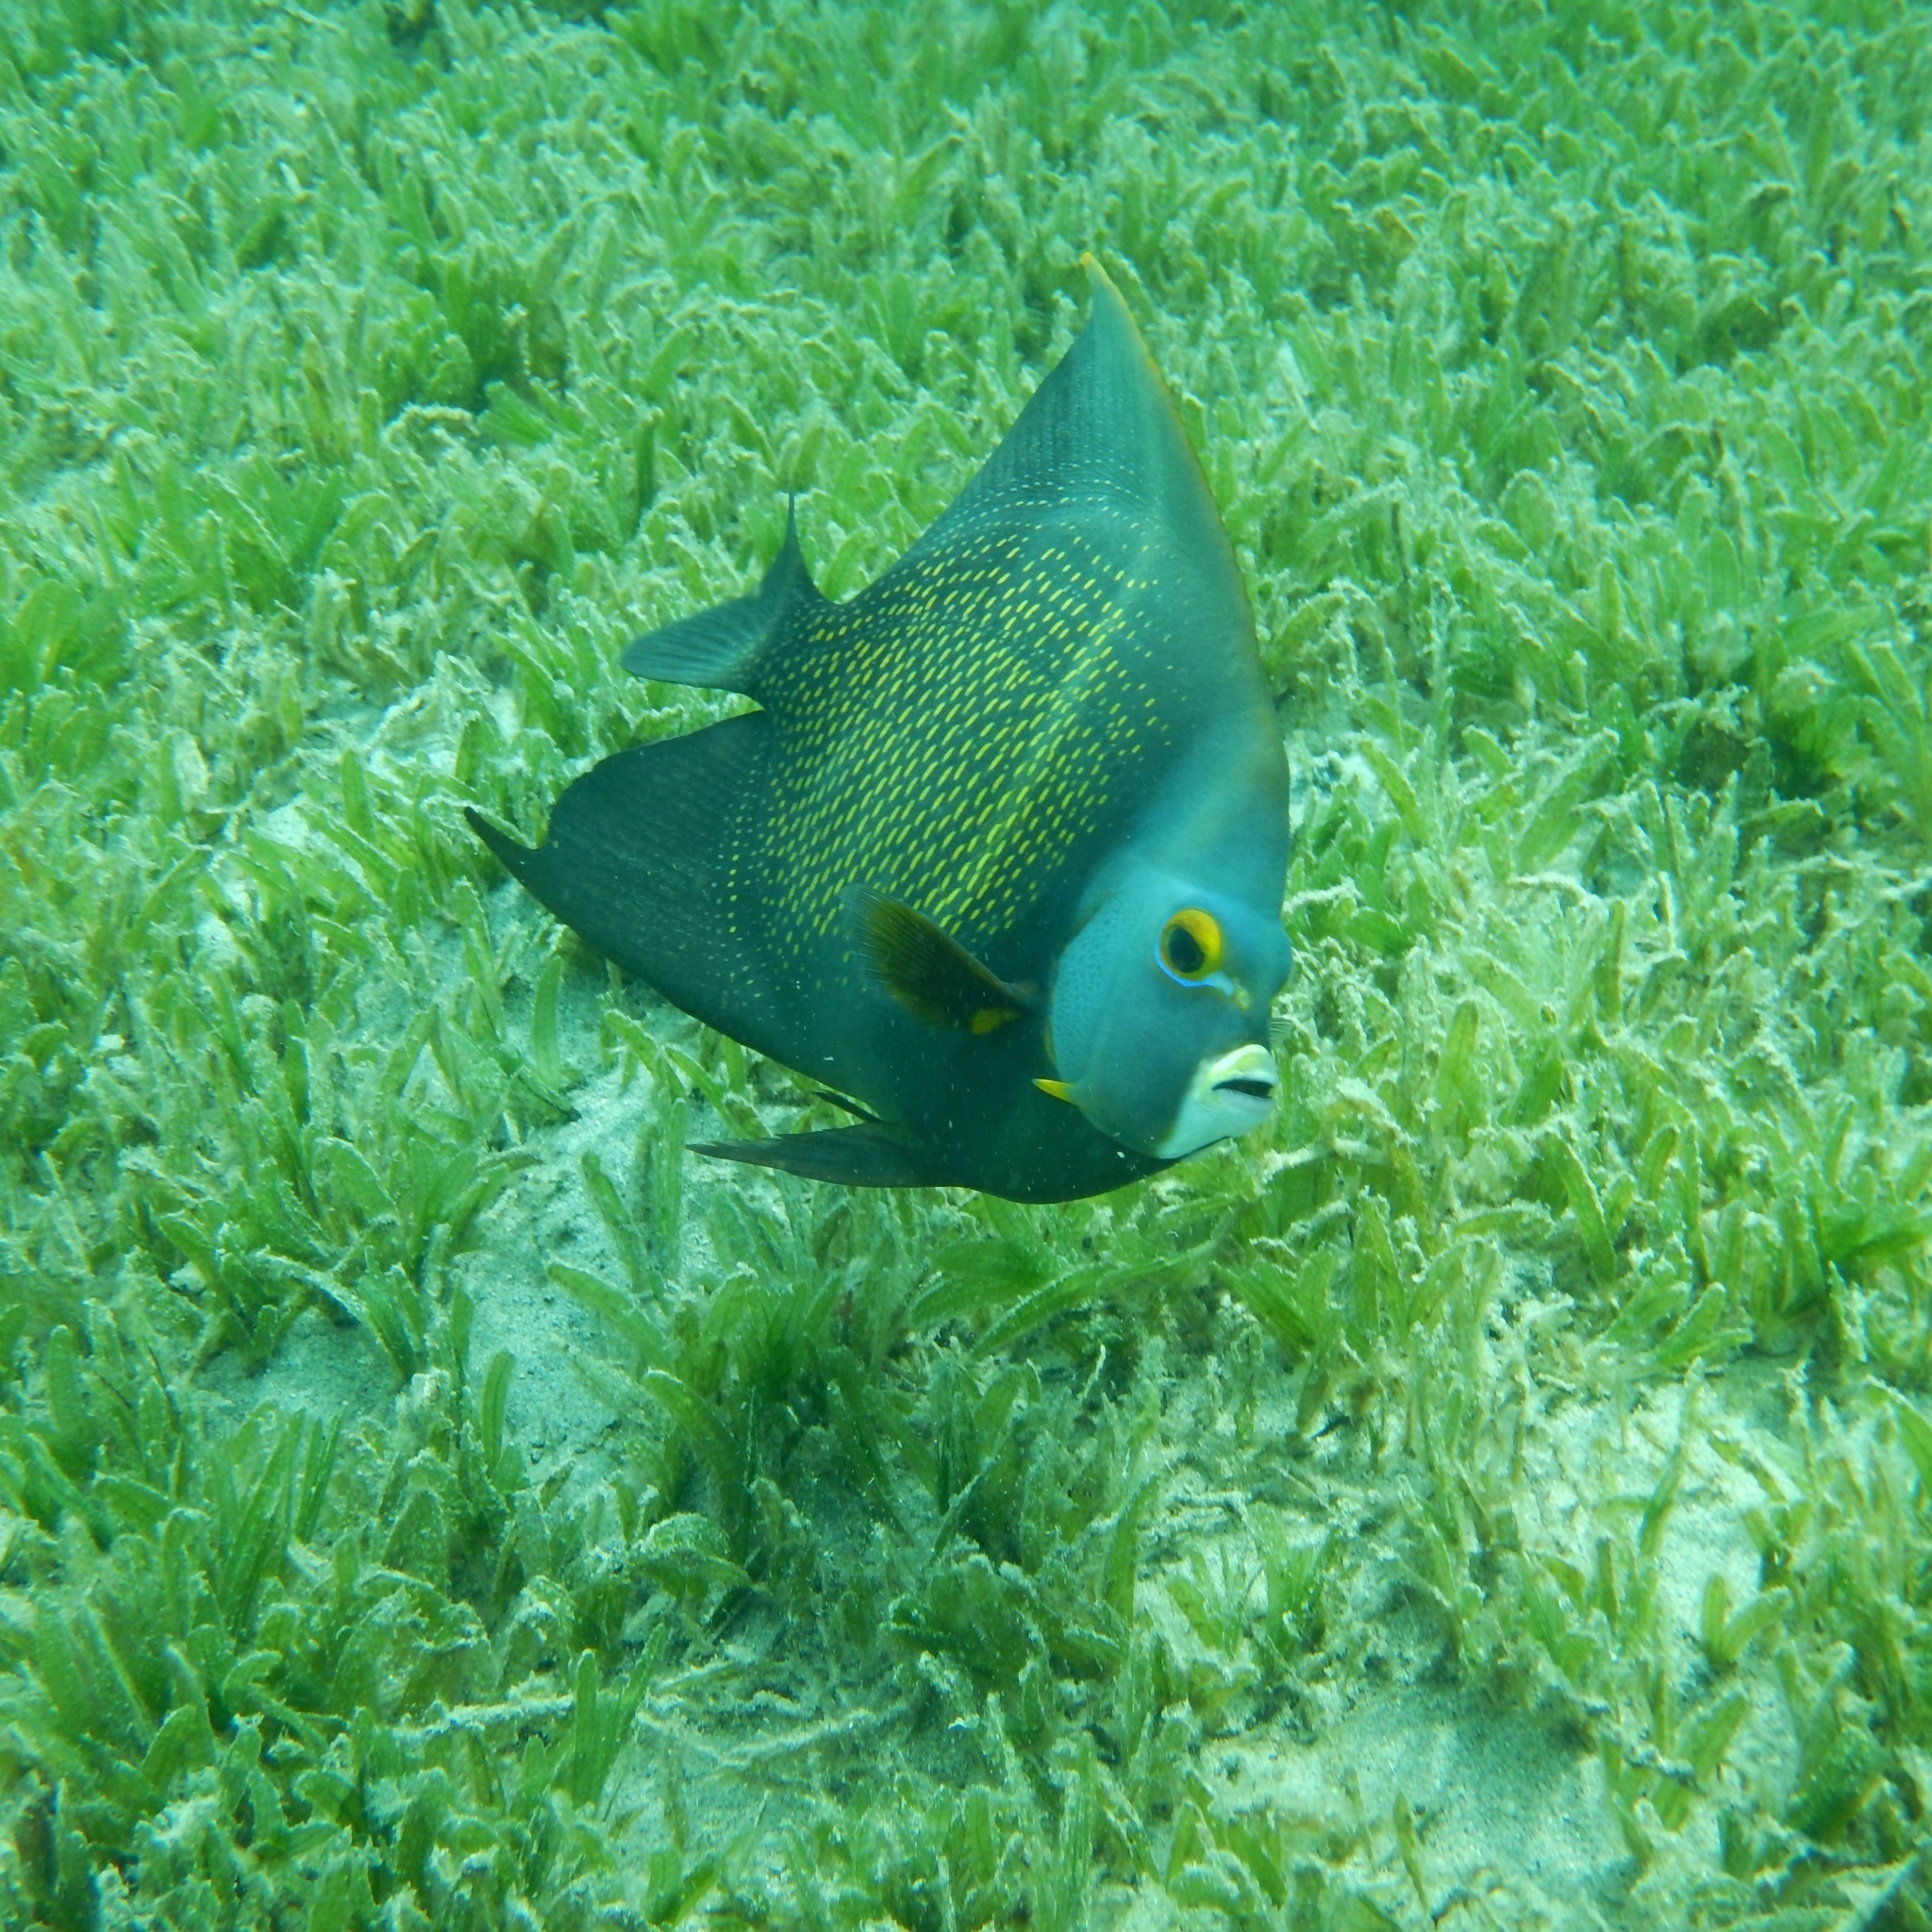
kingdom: Animalia
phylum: Chordata
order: Perciformes
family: Pomacanthidae
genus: Pomacanthus
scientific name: Pomacanthus paru
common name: French angelfish
